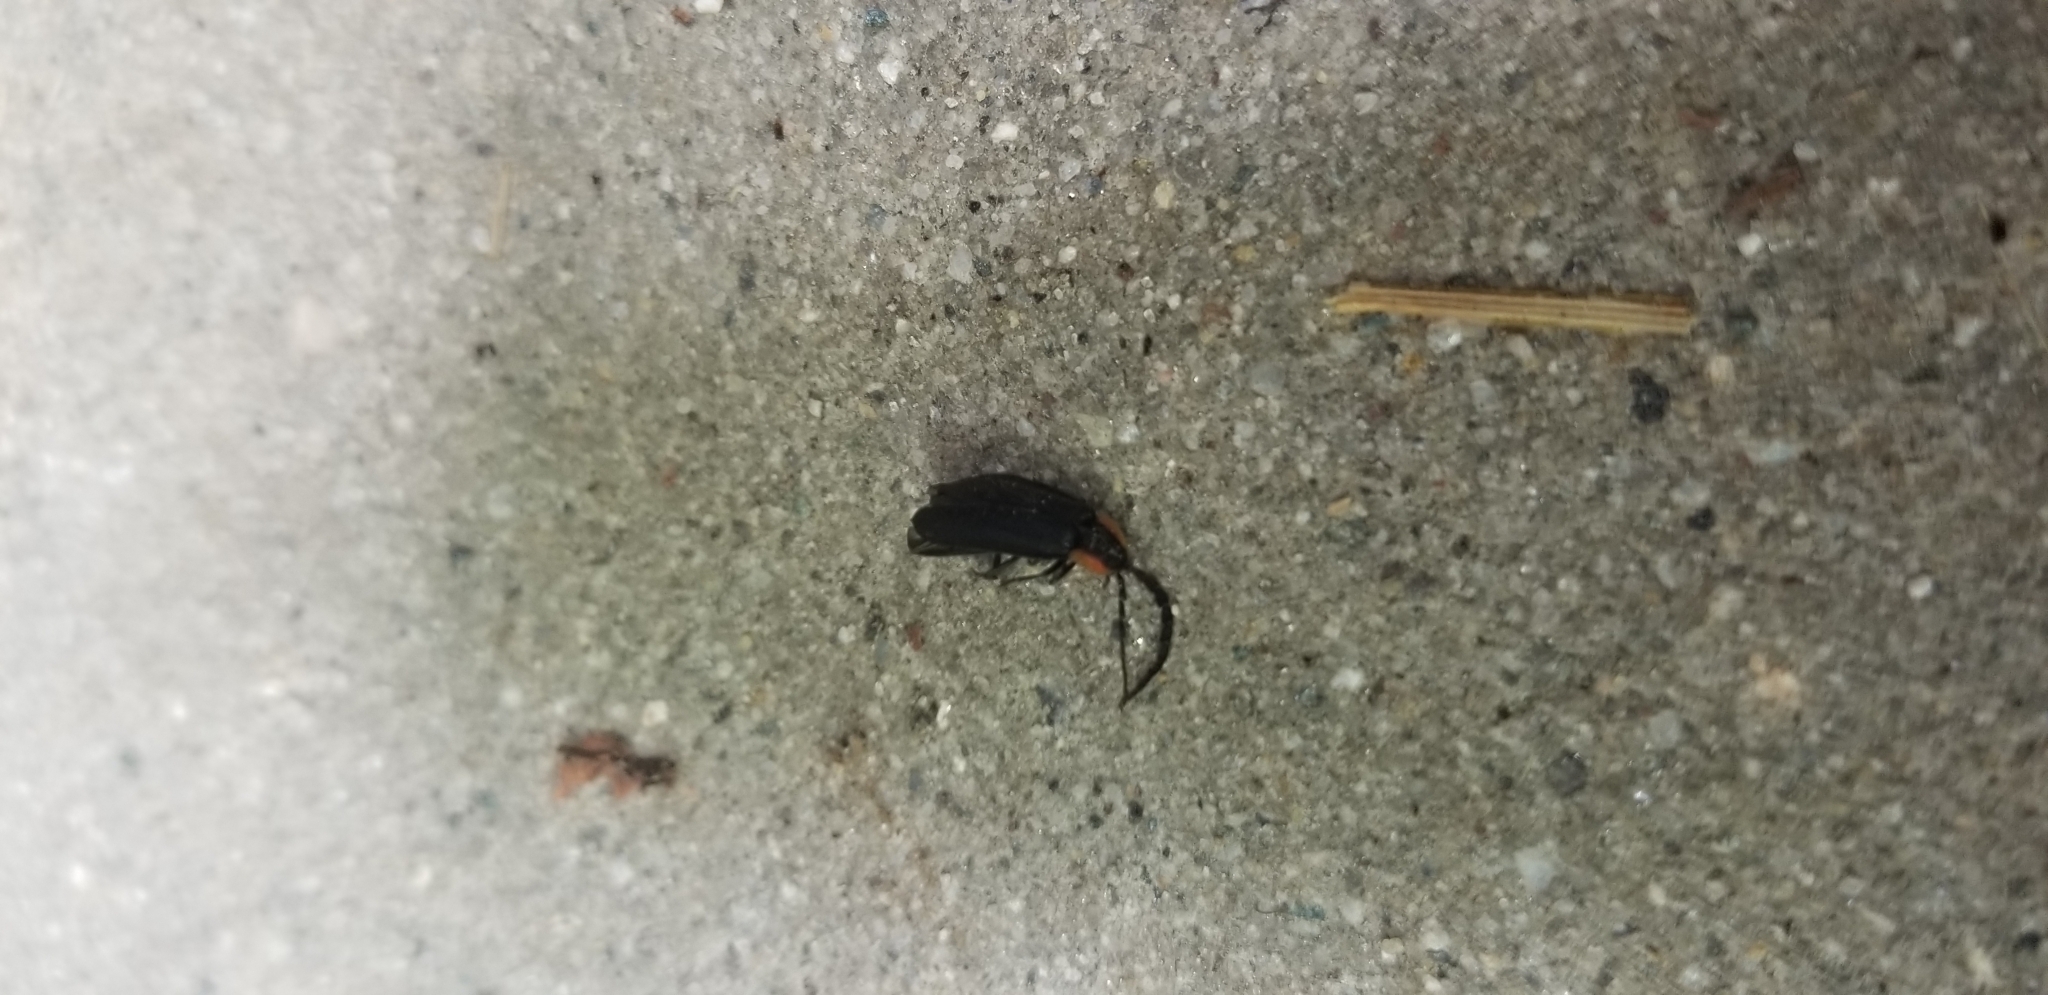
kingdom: Animalia
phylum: Arthropoda
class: Insecta
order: Coleoptera
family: Lampyridae
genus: Lucidota
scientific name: Lucidota atra
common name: Black firefly
